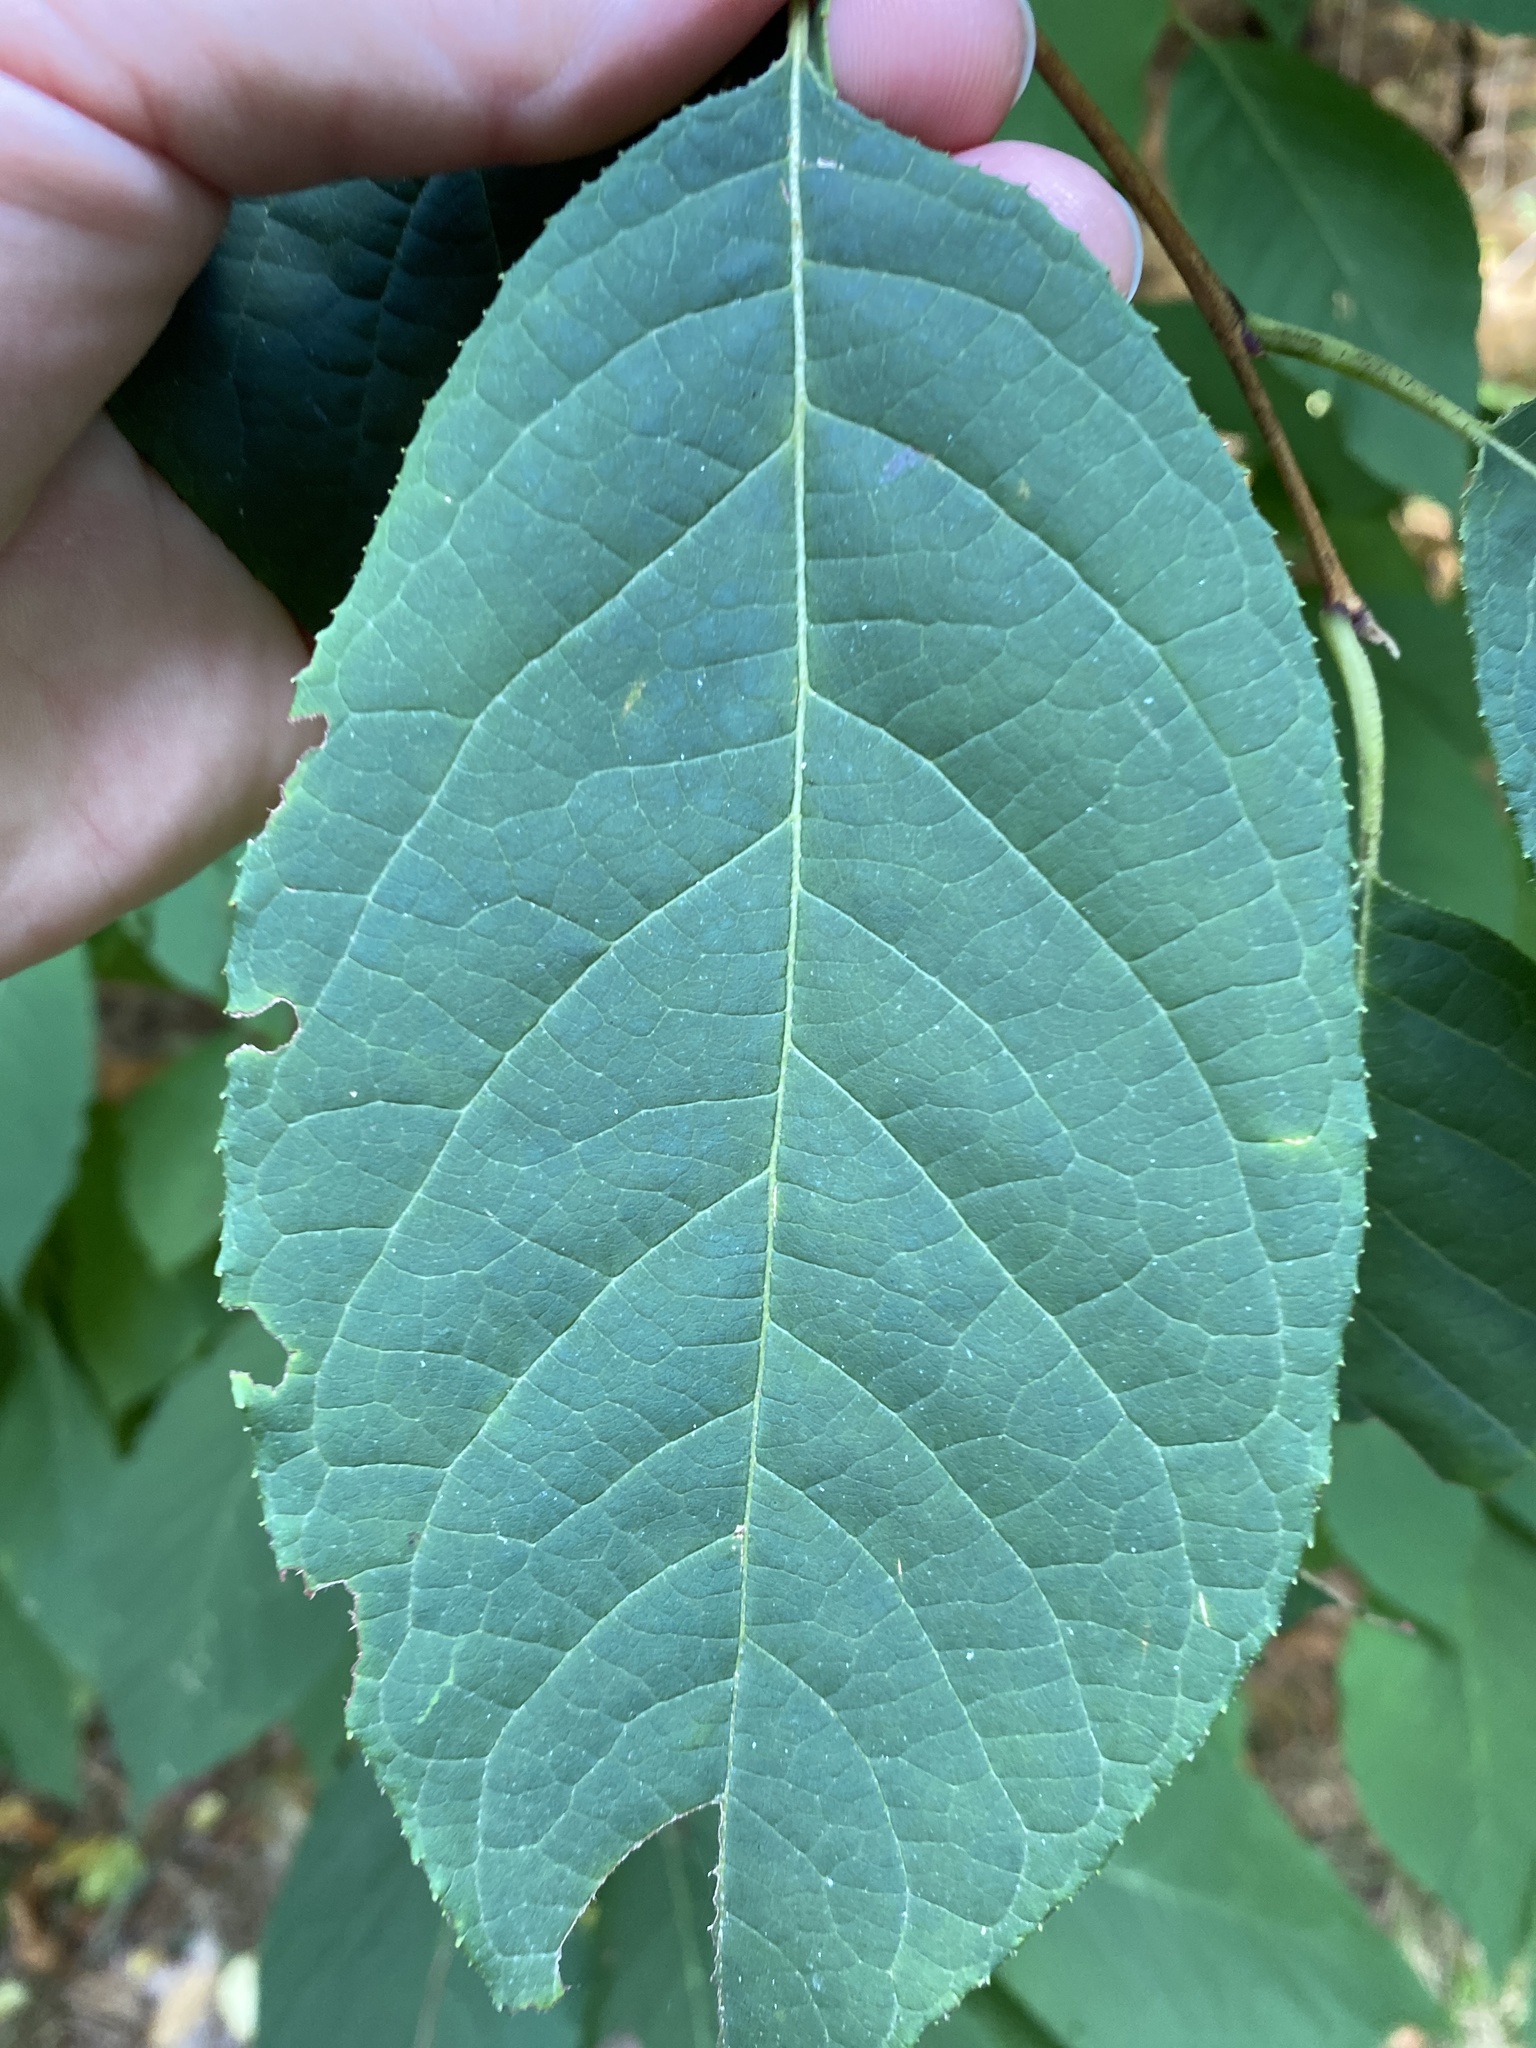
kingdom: Plantae
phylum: Tracheophyta
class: Magnoliopsida
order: Ericales
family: Styracaceae
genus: Halesia
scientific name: Halesia carolina
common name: Carolina silverbell
